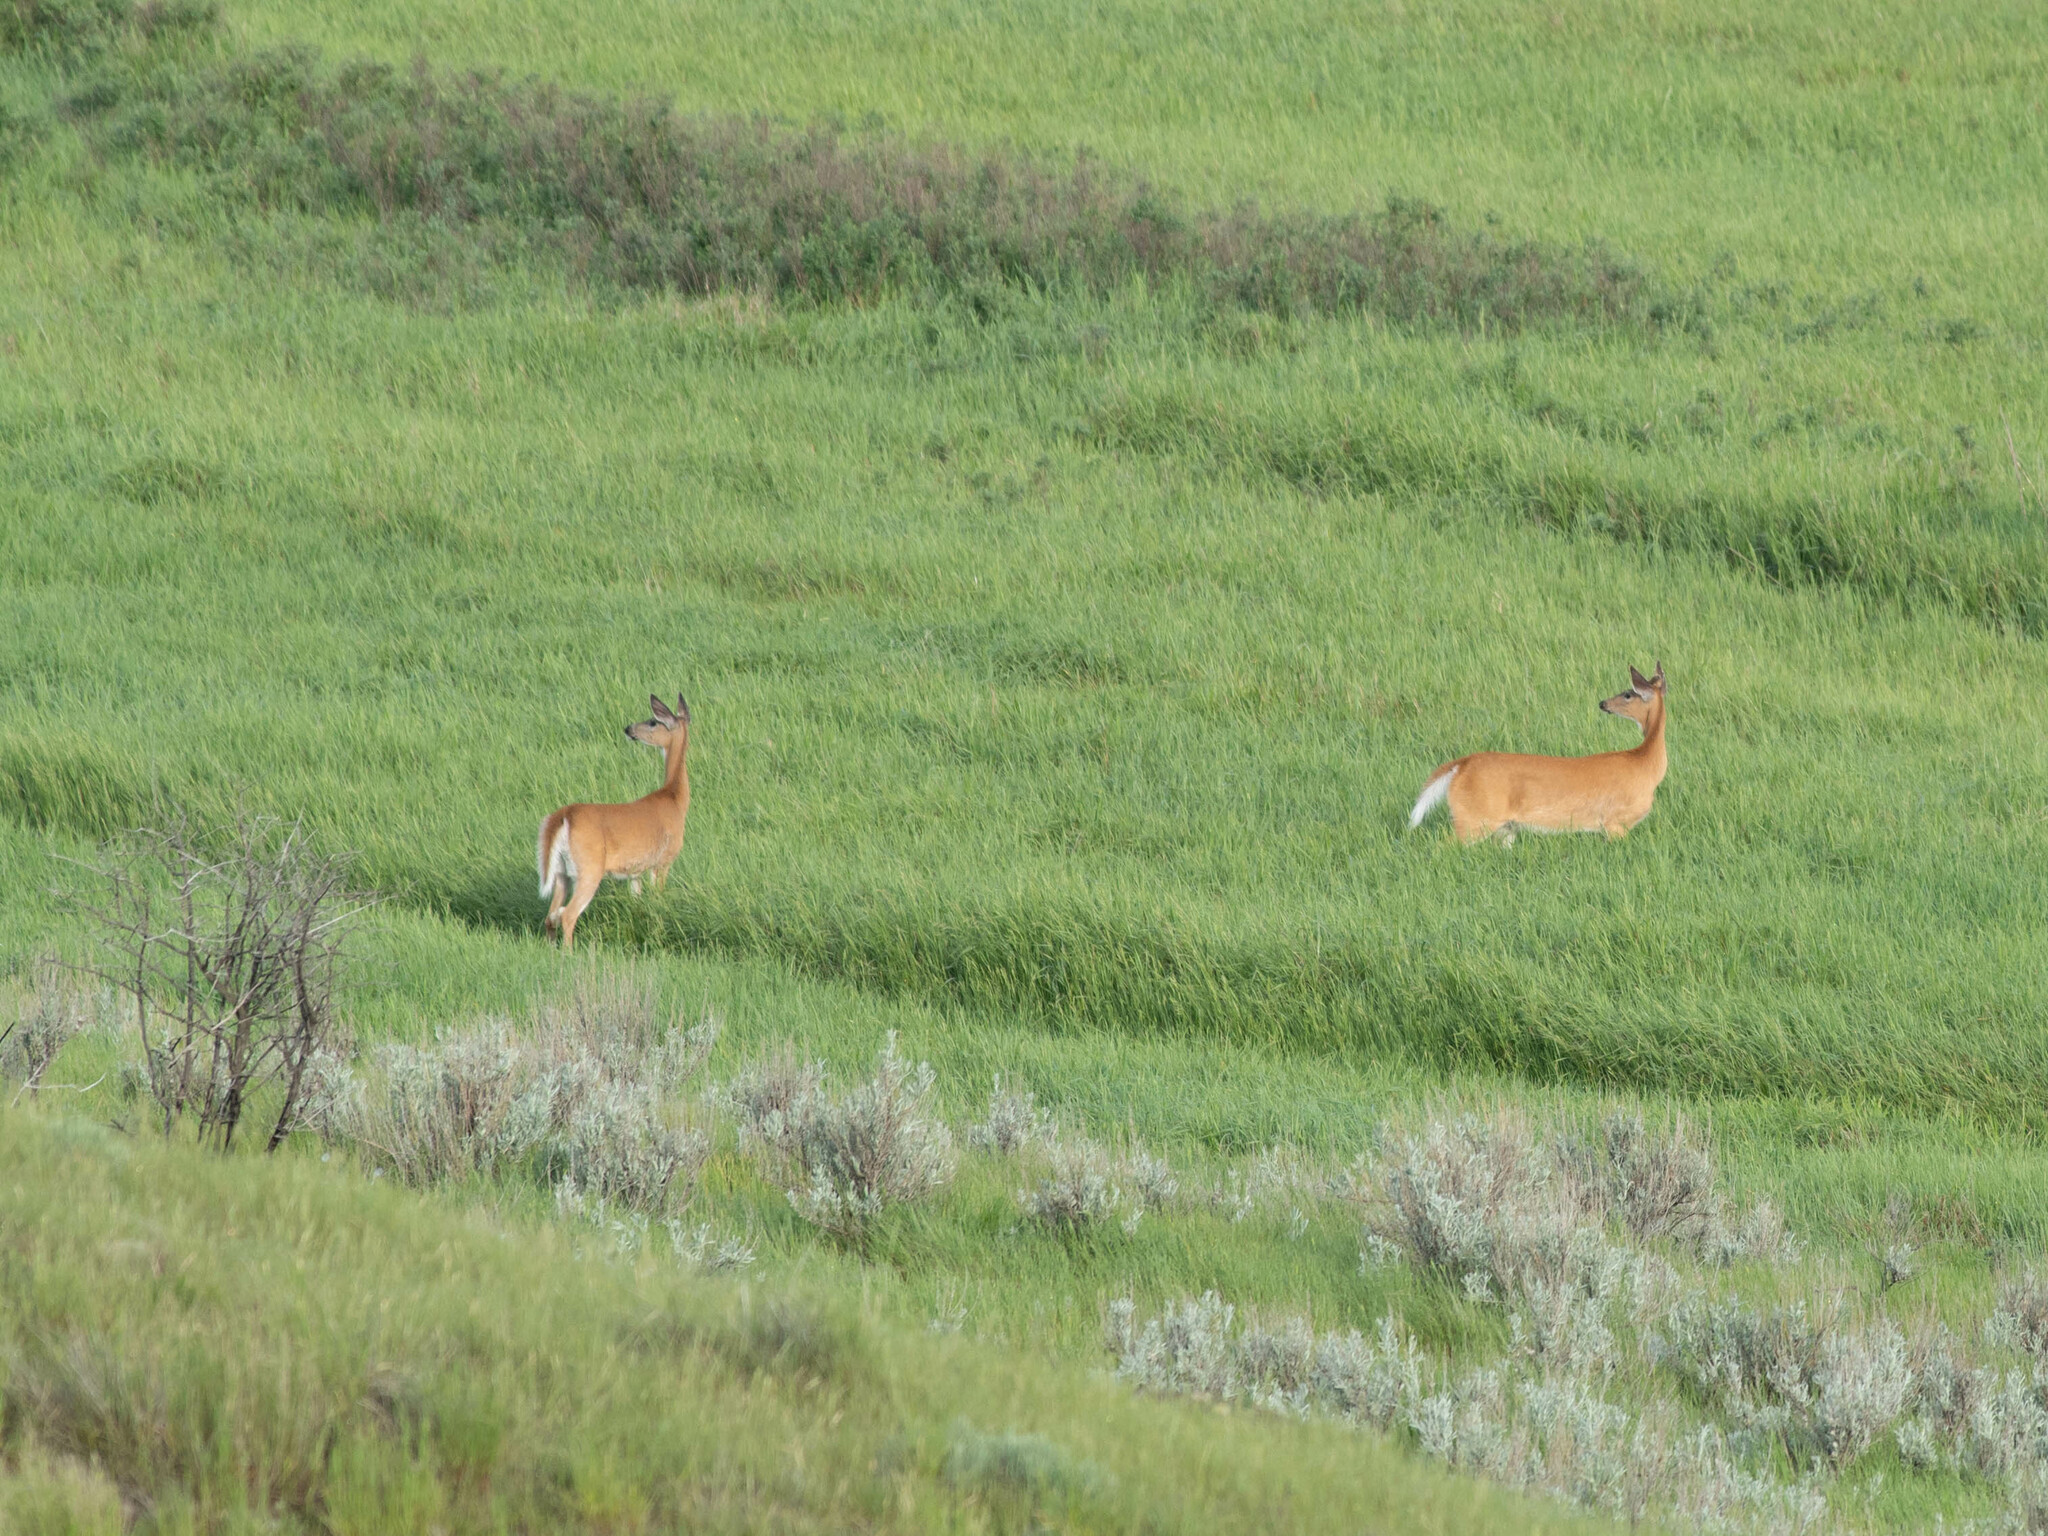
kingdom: Animalia
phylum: Chordata
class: Mammalia
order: Artiodactyla
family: Cervidae
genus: Odocoileus
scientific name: Odocoileus virginianus
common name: White-tailed deer
